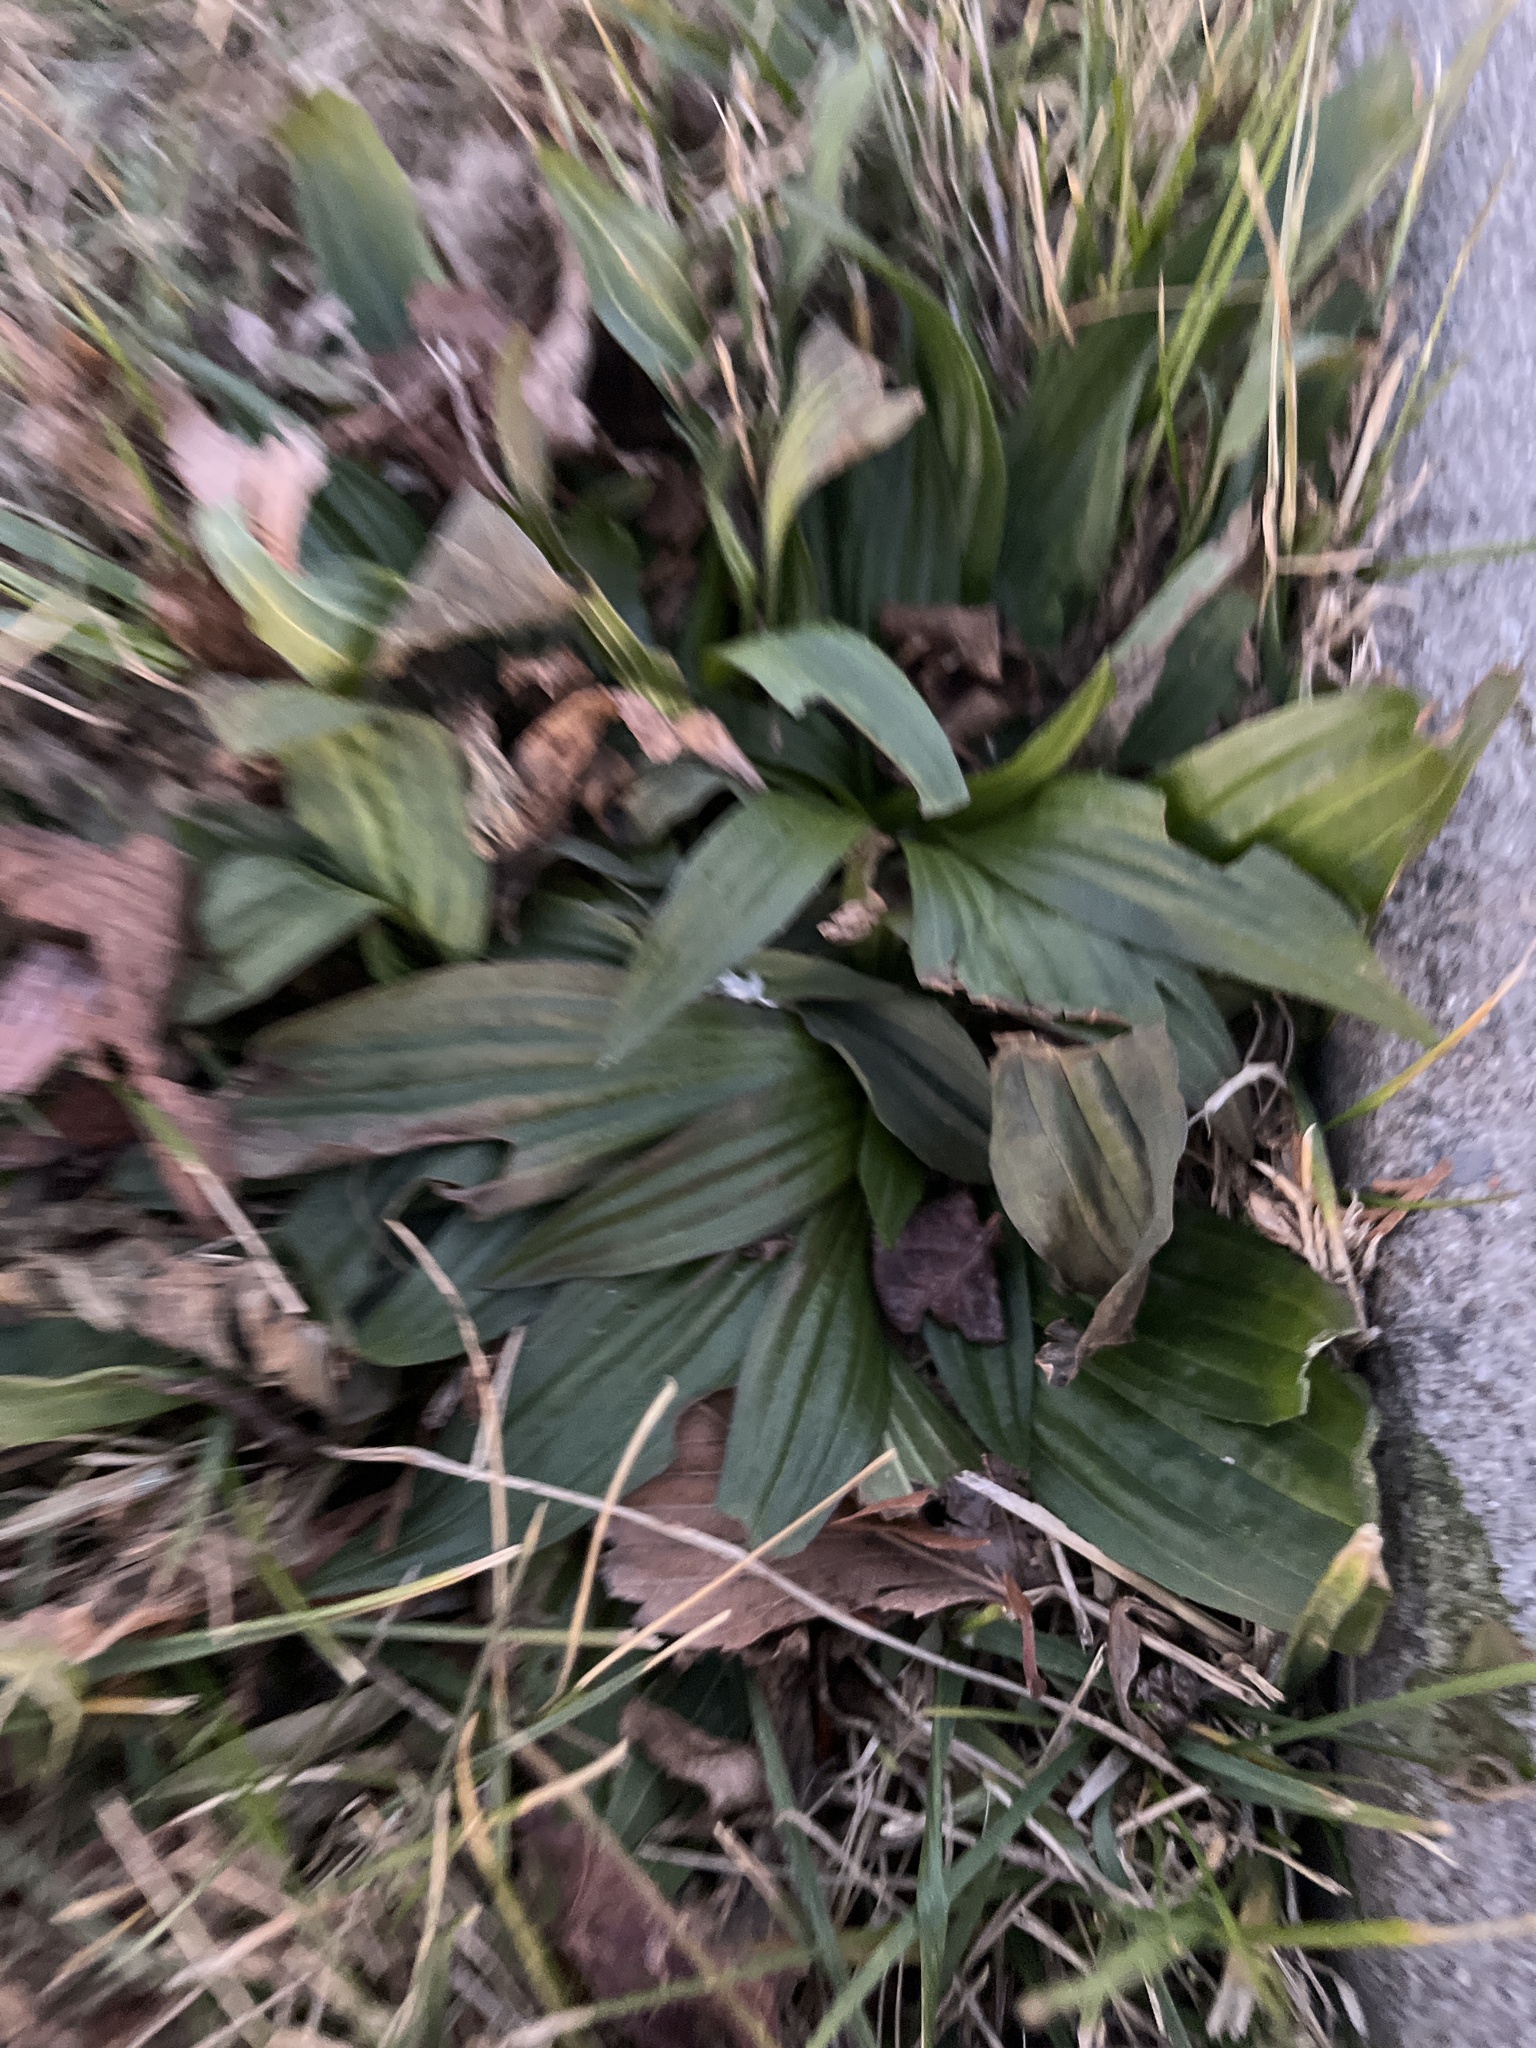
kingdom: Plantae
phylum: Tracheophyta
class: Magnoliopsida
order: Lamiales
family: Plantaginaceae
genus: Plantago
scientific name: Plantago lanceolata
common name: Ribwort plantain
